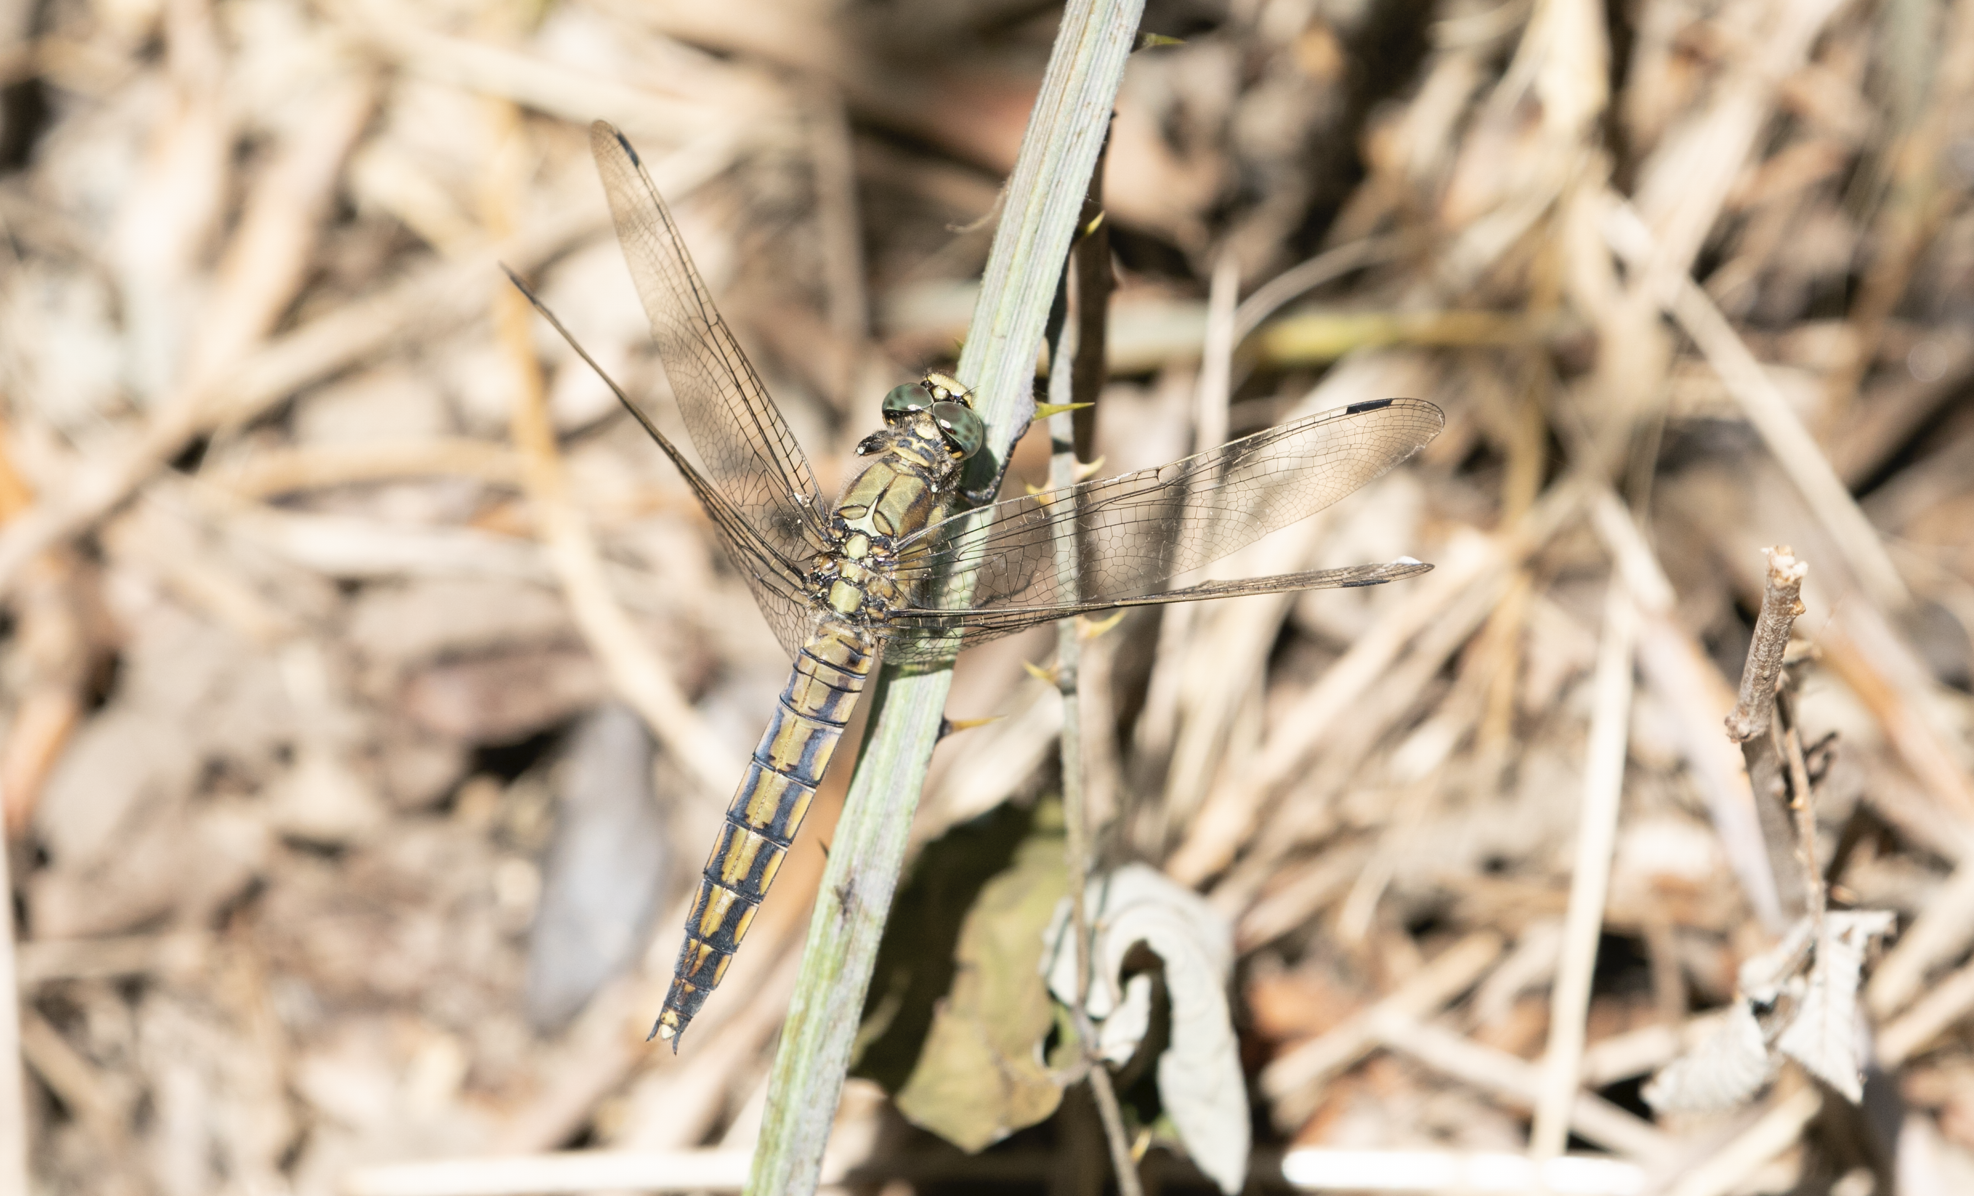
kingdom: Animalia
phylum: Arthropoda
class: Insecta
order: Odonata
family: Libellulidae
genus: Orthetrum
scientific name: Orthetrum cancellatum
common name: Black-tailed skimmer
